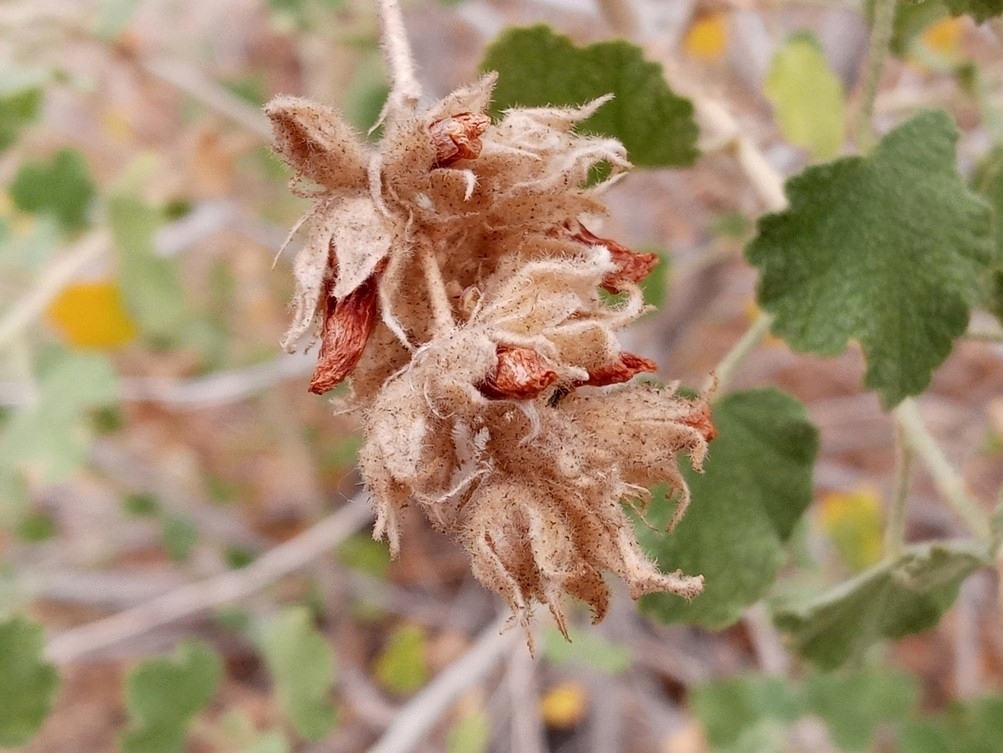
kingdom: Plantae
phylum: Tracheophyta
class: Magnoliopsida
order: Malvales
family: Malvaceae
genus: Malacothamnus
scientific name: Malacothamnus marrubioides
